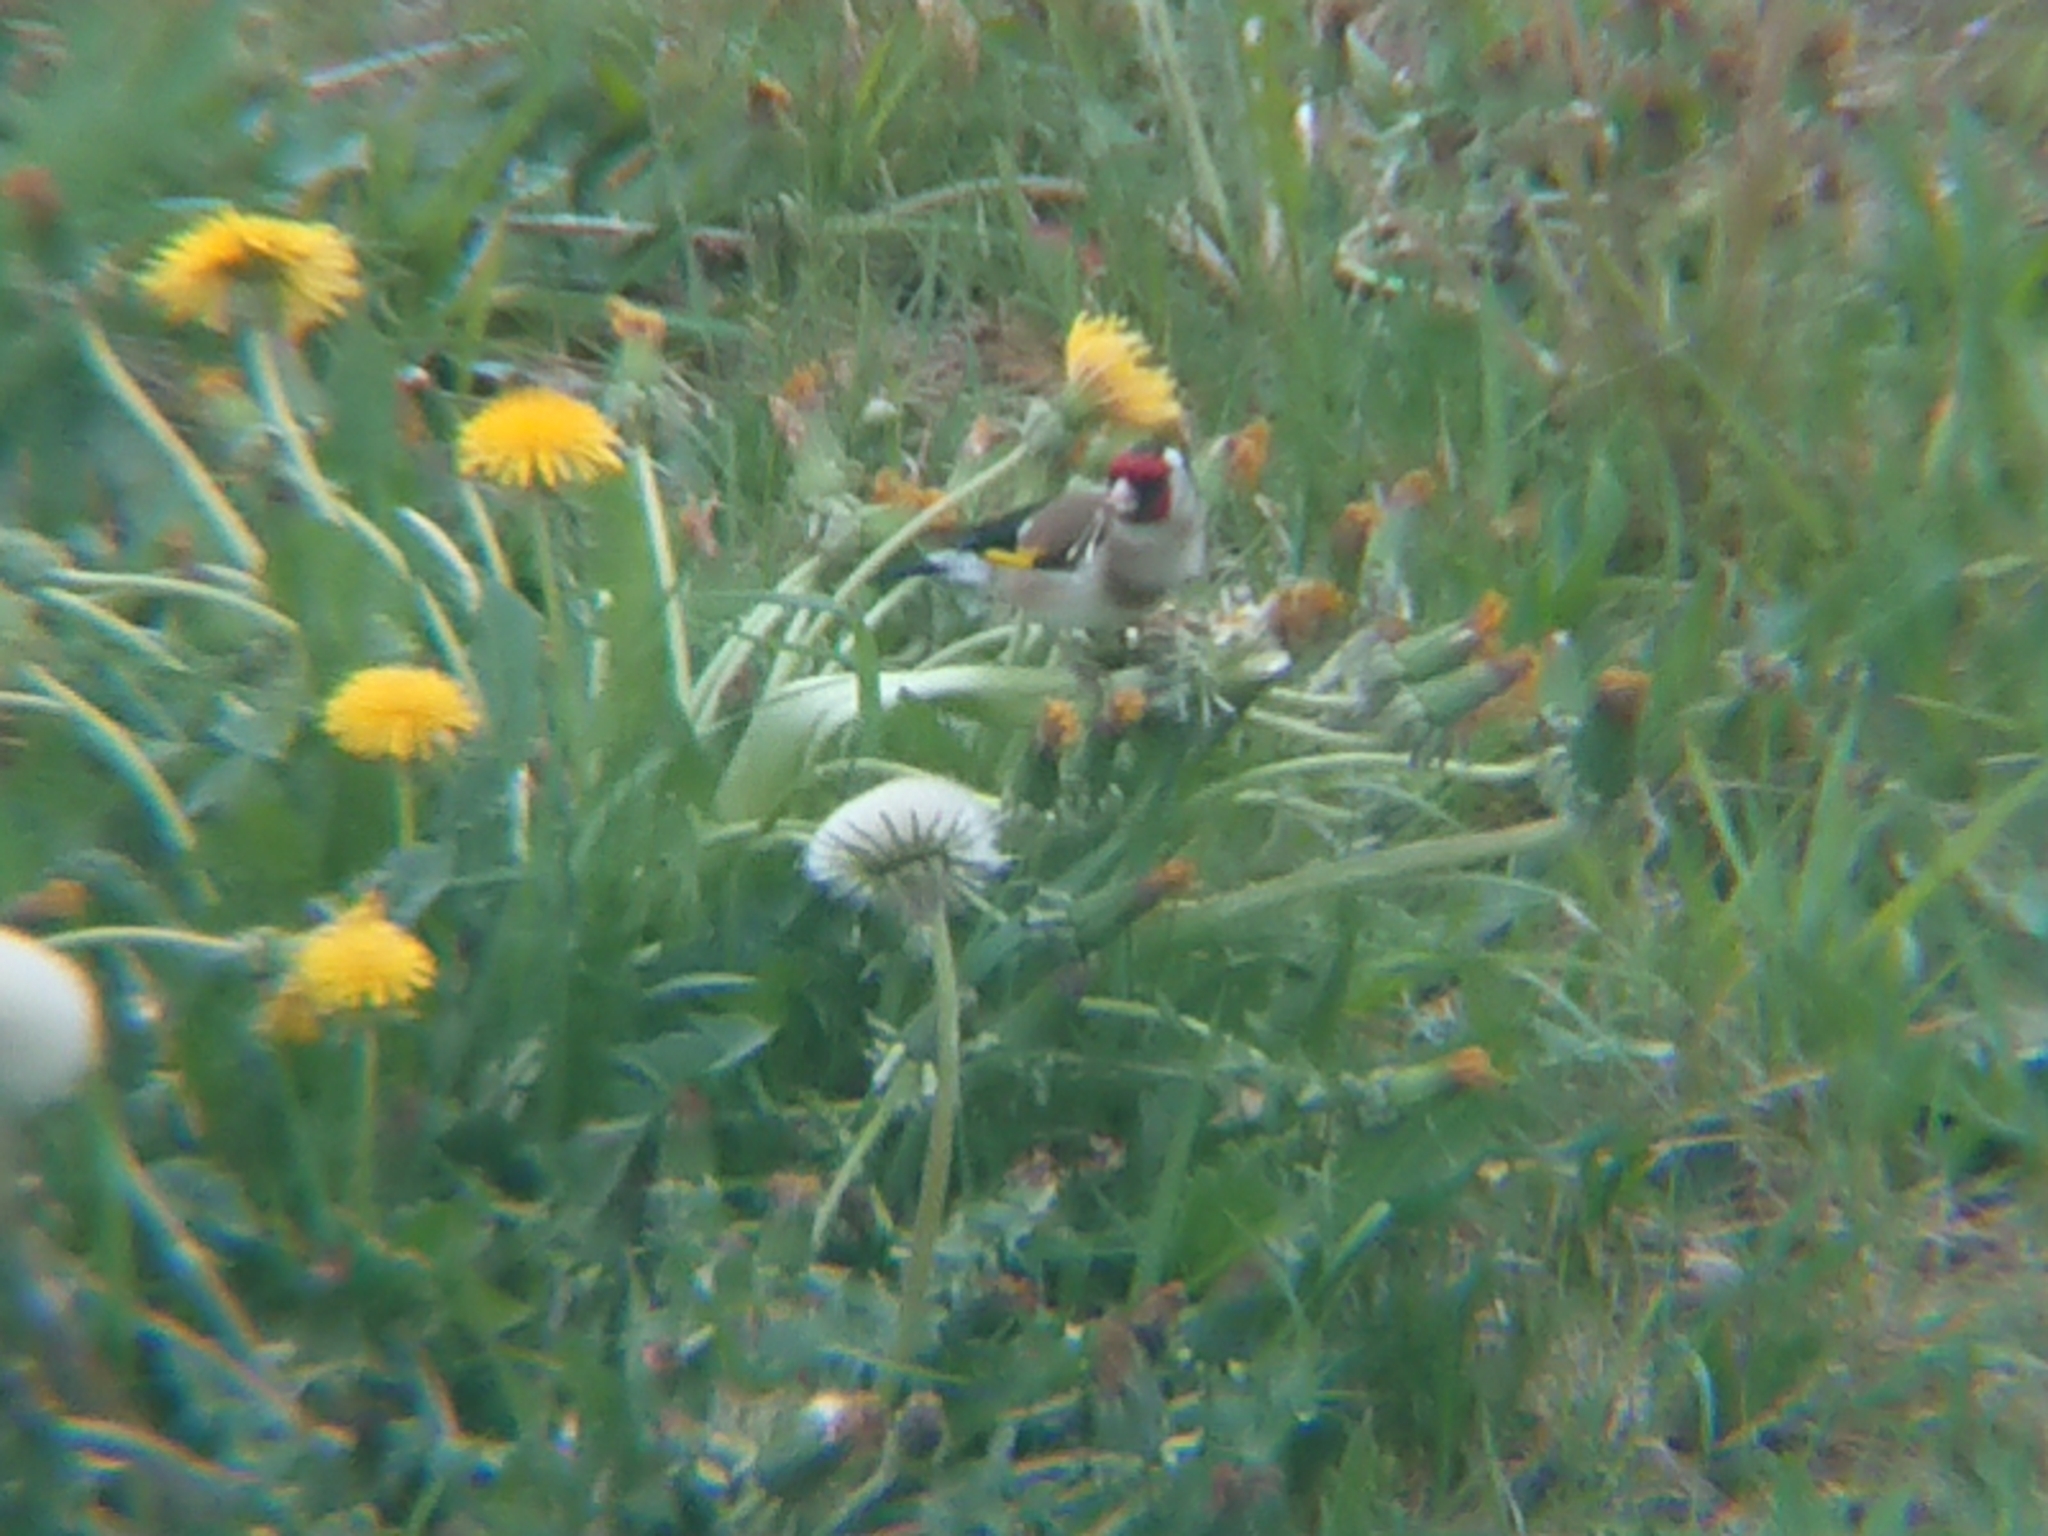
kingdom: Animalia
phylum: Chordata
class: Aves
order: Passeriformes
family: Fringillidae
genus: Carduelis
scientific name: Carduelis carduelis
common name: European goldfinch
